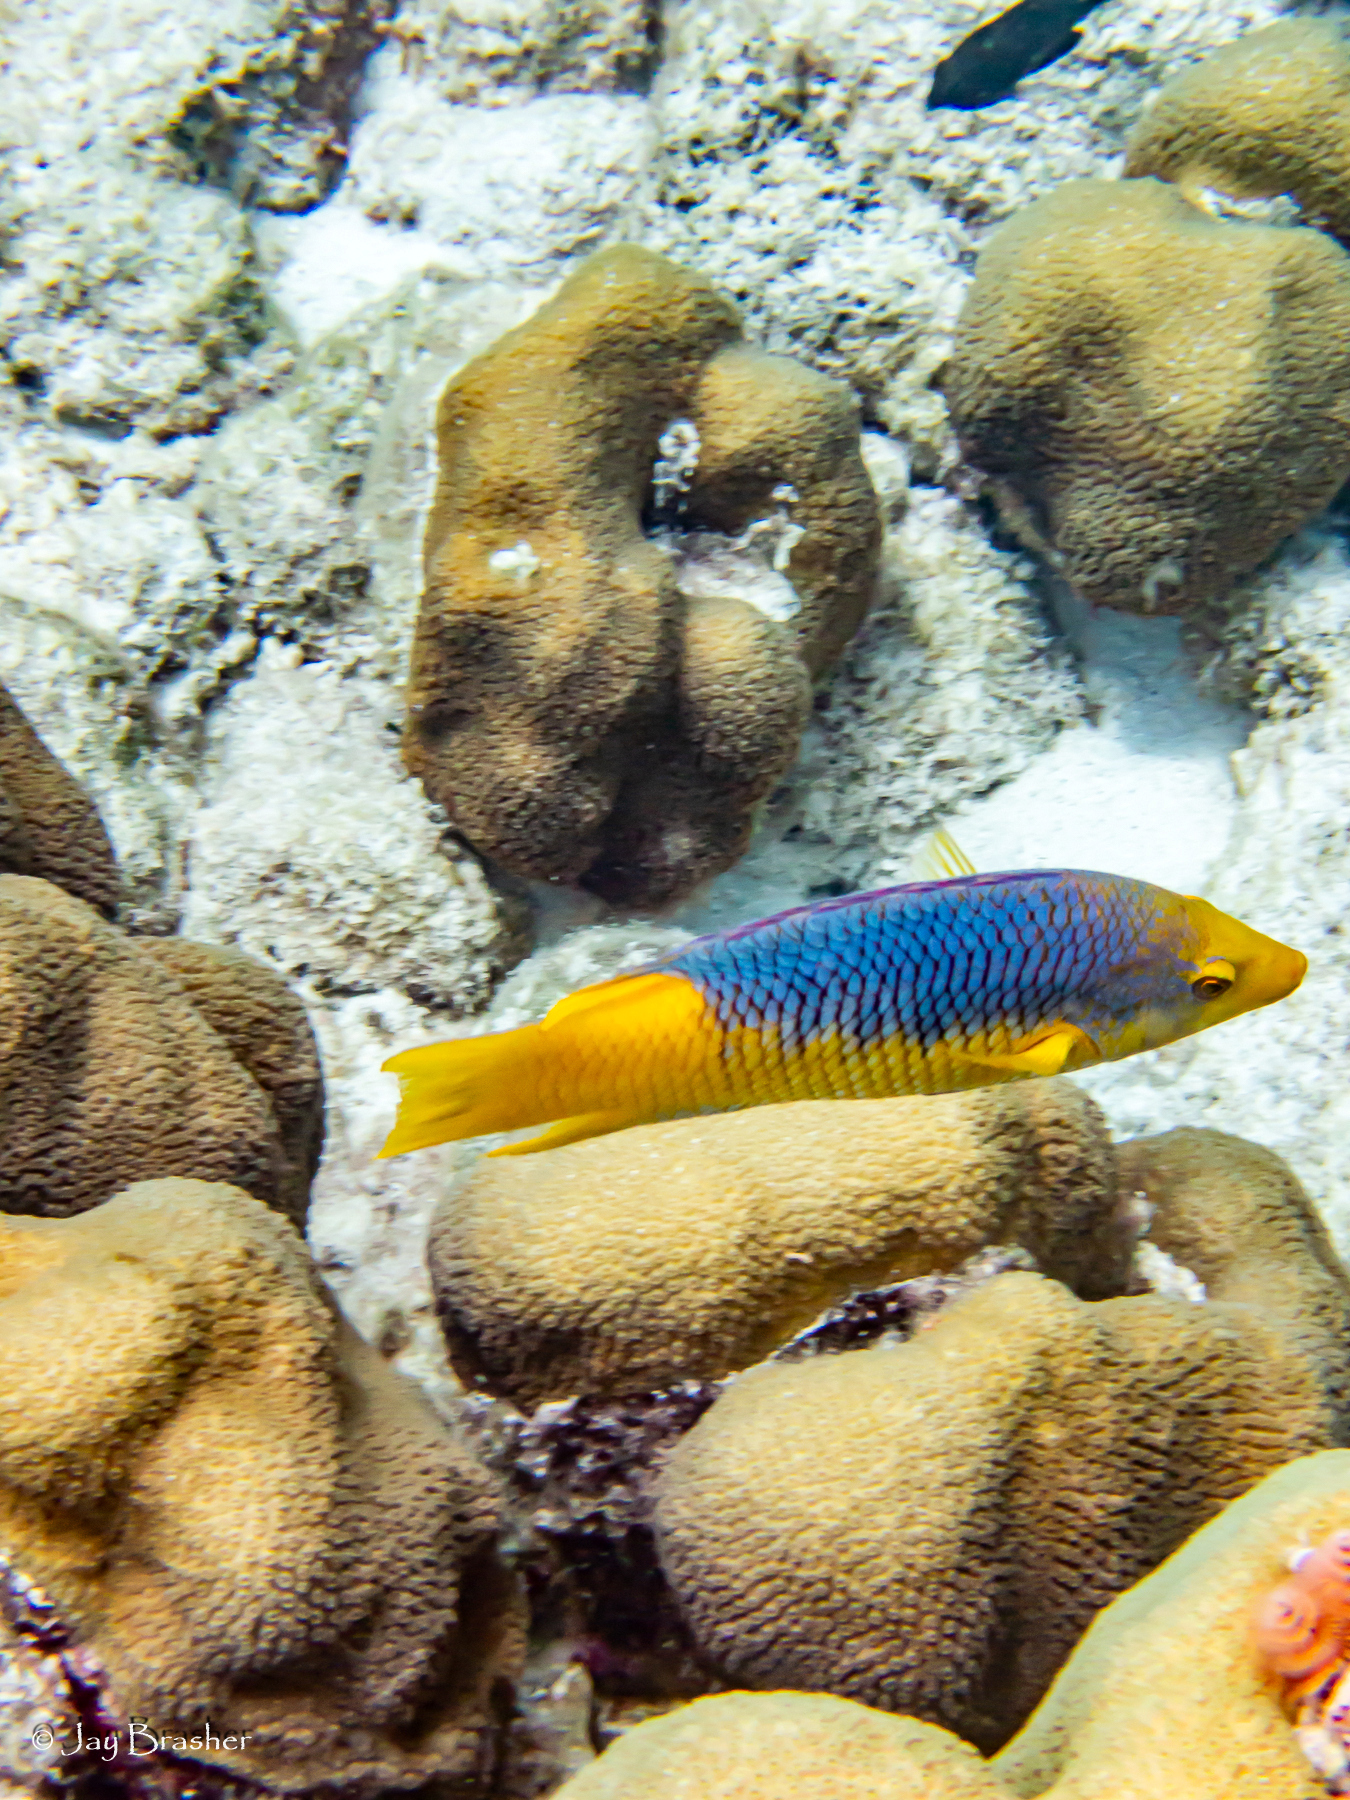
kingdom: Animalia
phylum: Chordata
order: Perciformes
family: Labridae
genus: Bodianus
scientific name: Bodianus rufus
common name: Spanish hogfish
